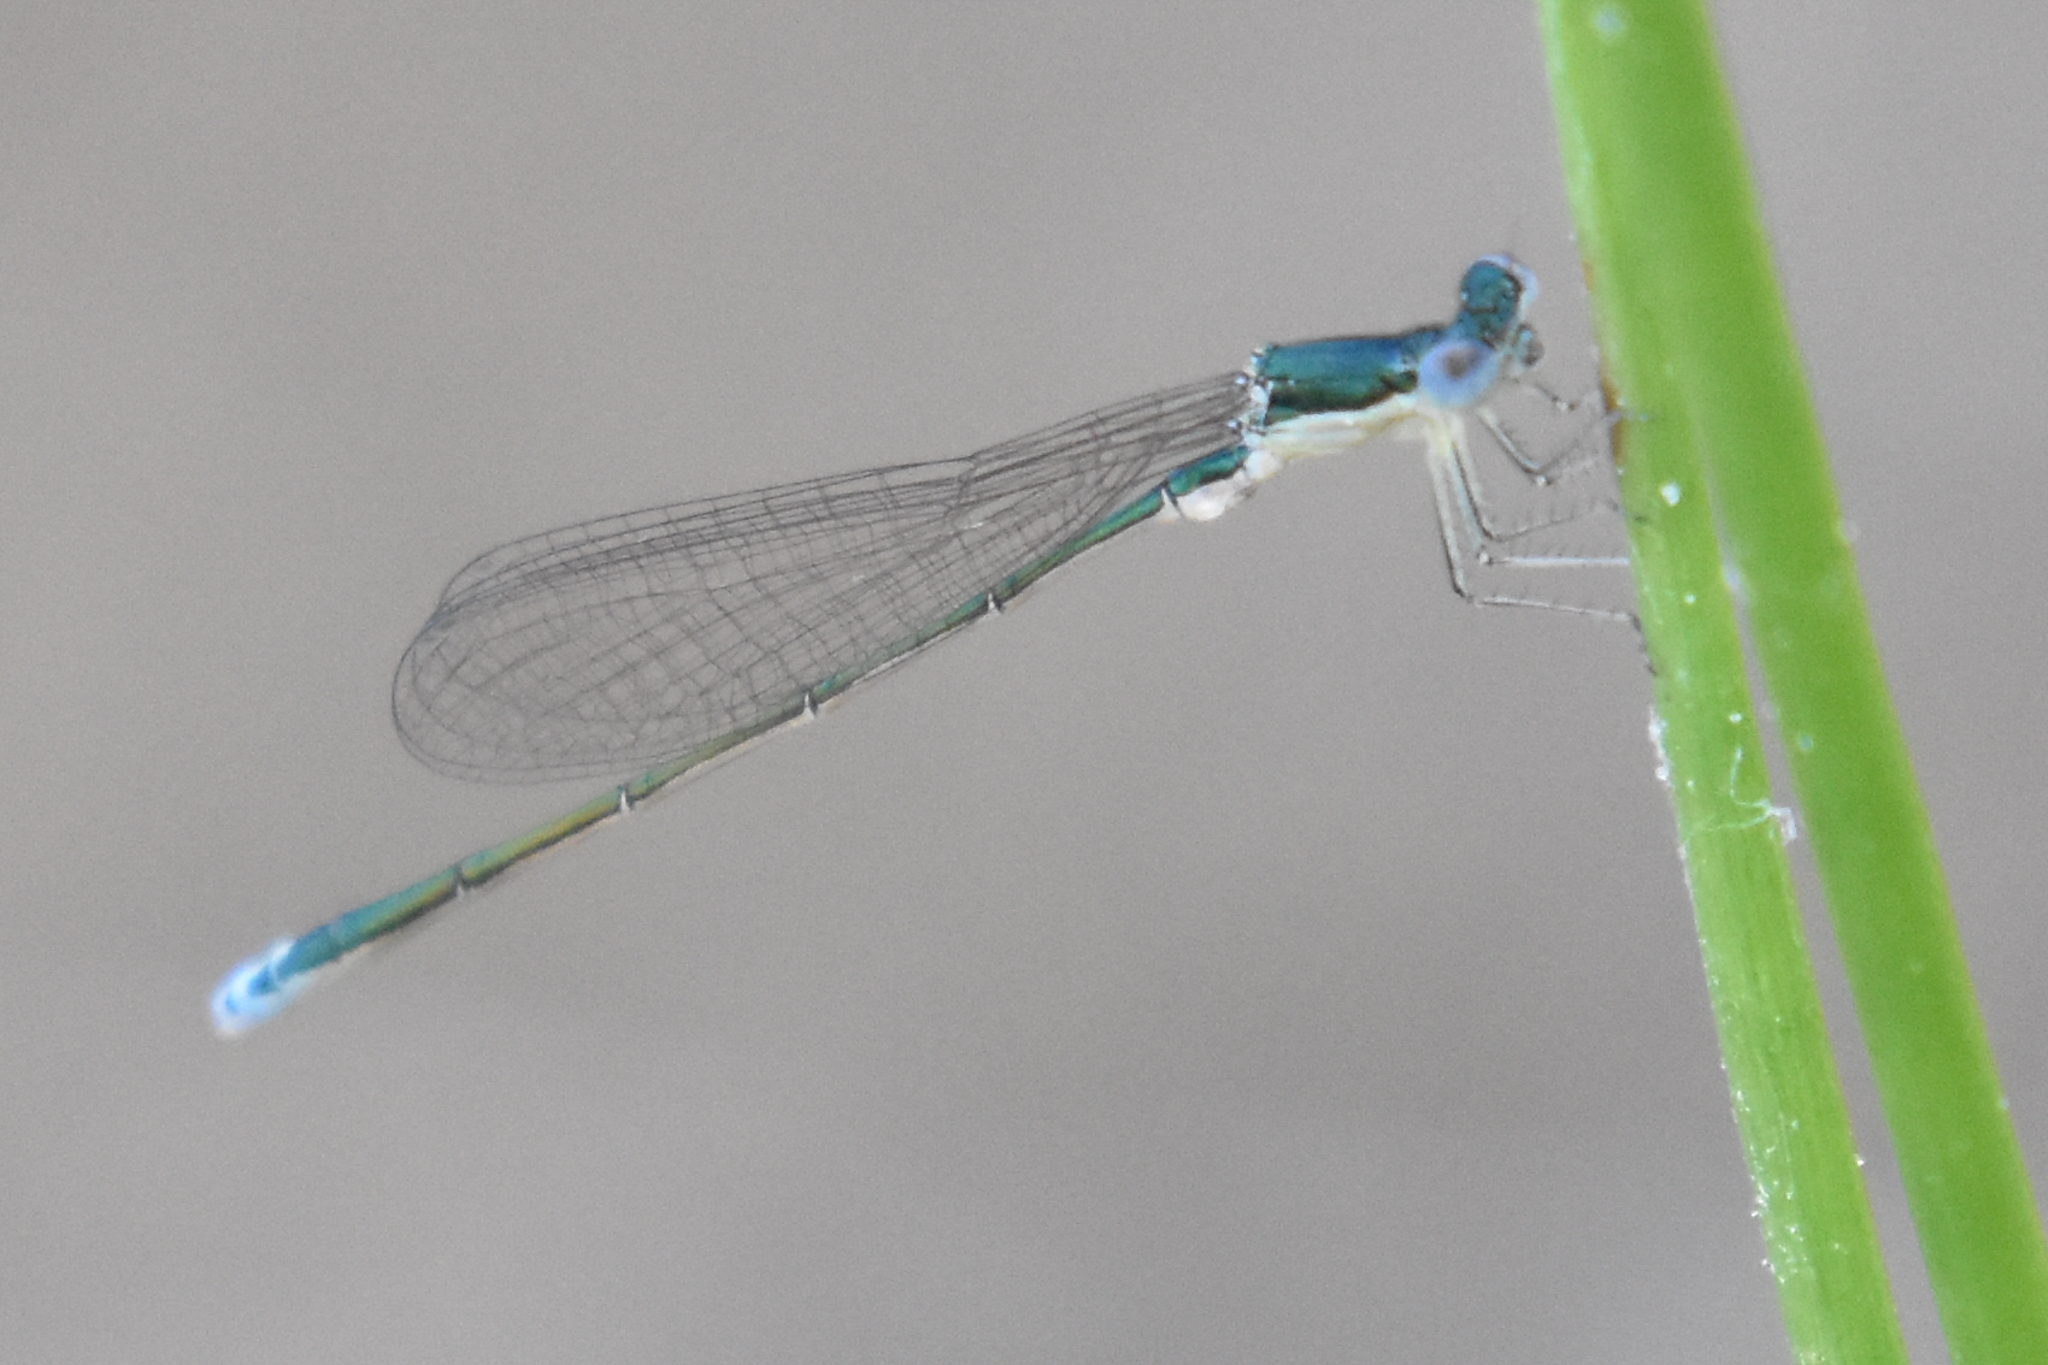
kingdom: Animalia
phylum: Arthropoda
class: Insecta
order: Odonata
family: Coenagrionidae
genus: Nehalennia
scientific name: Nehalennia irene
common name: Sedge sprite
